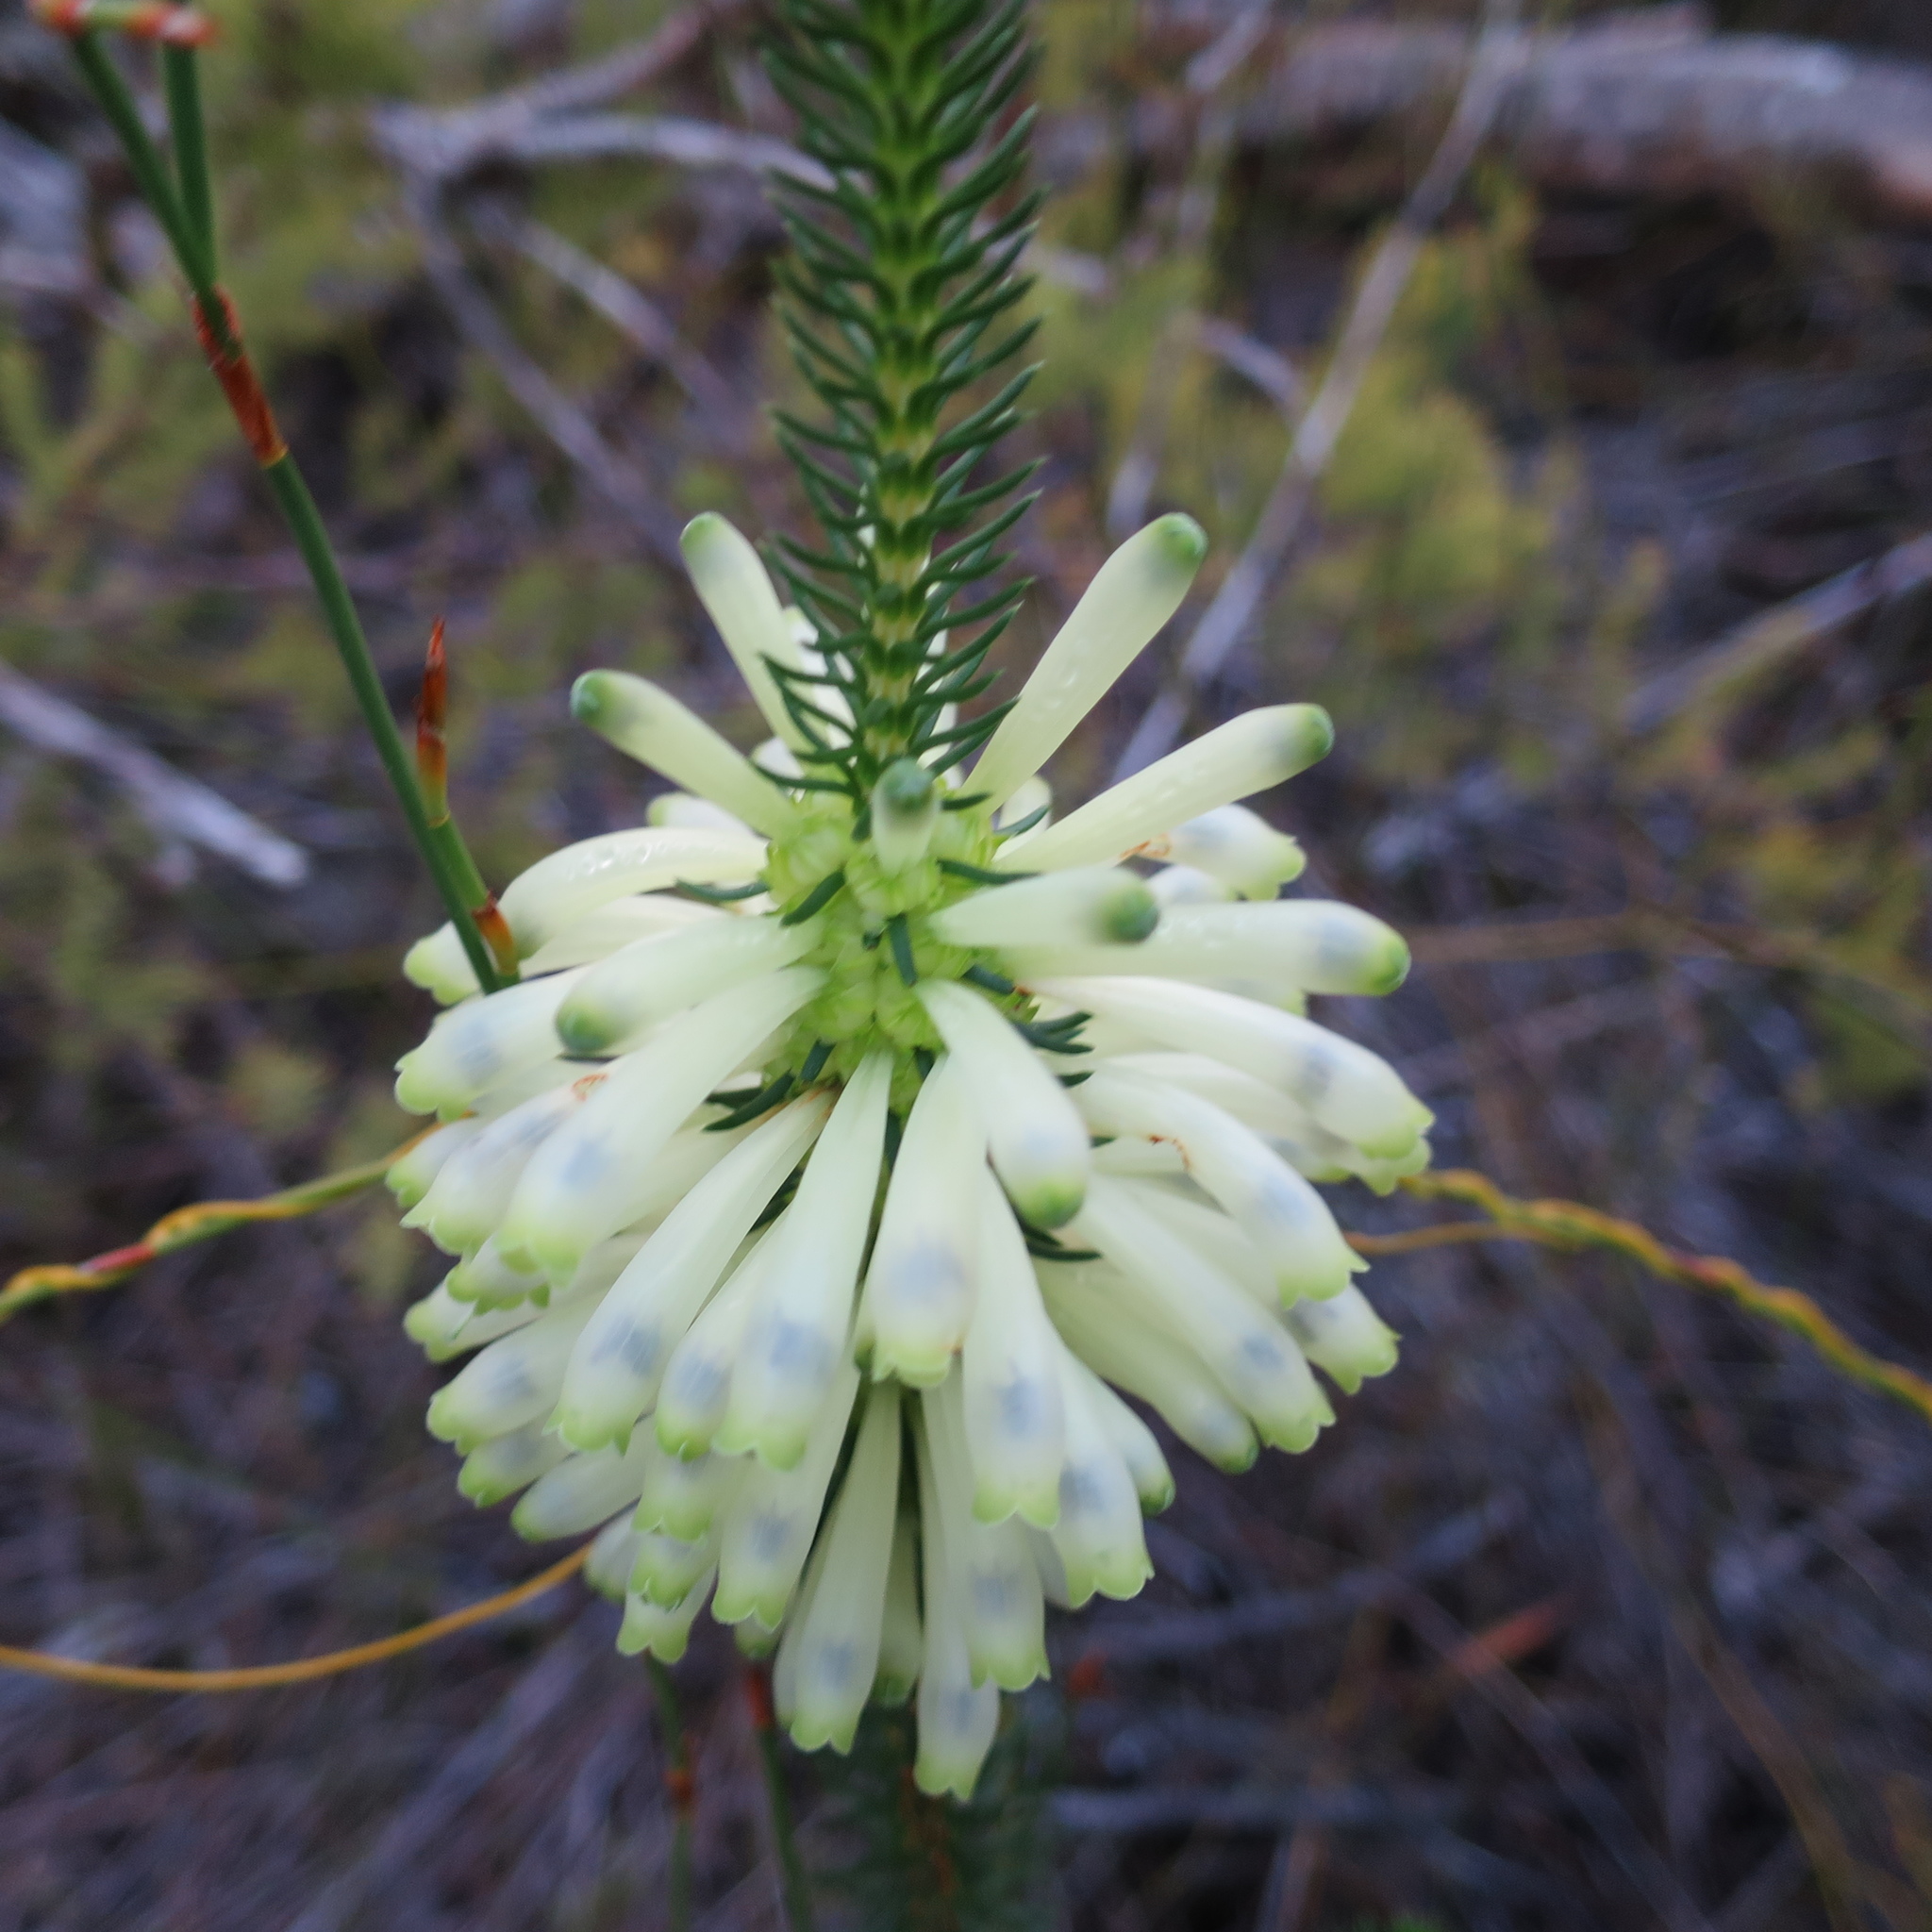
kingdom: Plantae
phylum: Tracheophyta
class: Magnoliopsida
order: Ericales
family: Ericaceae
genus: Erica
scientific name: Erica sessiliflora
